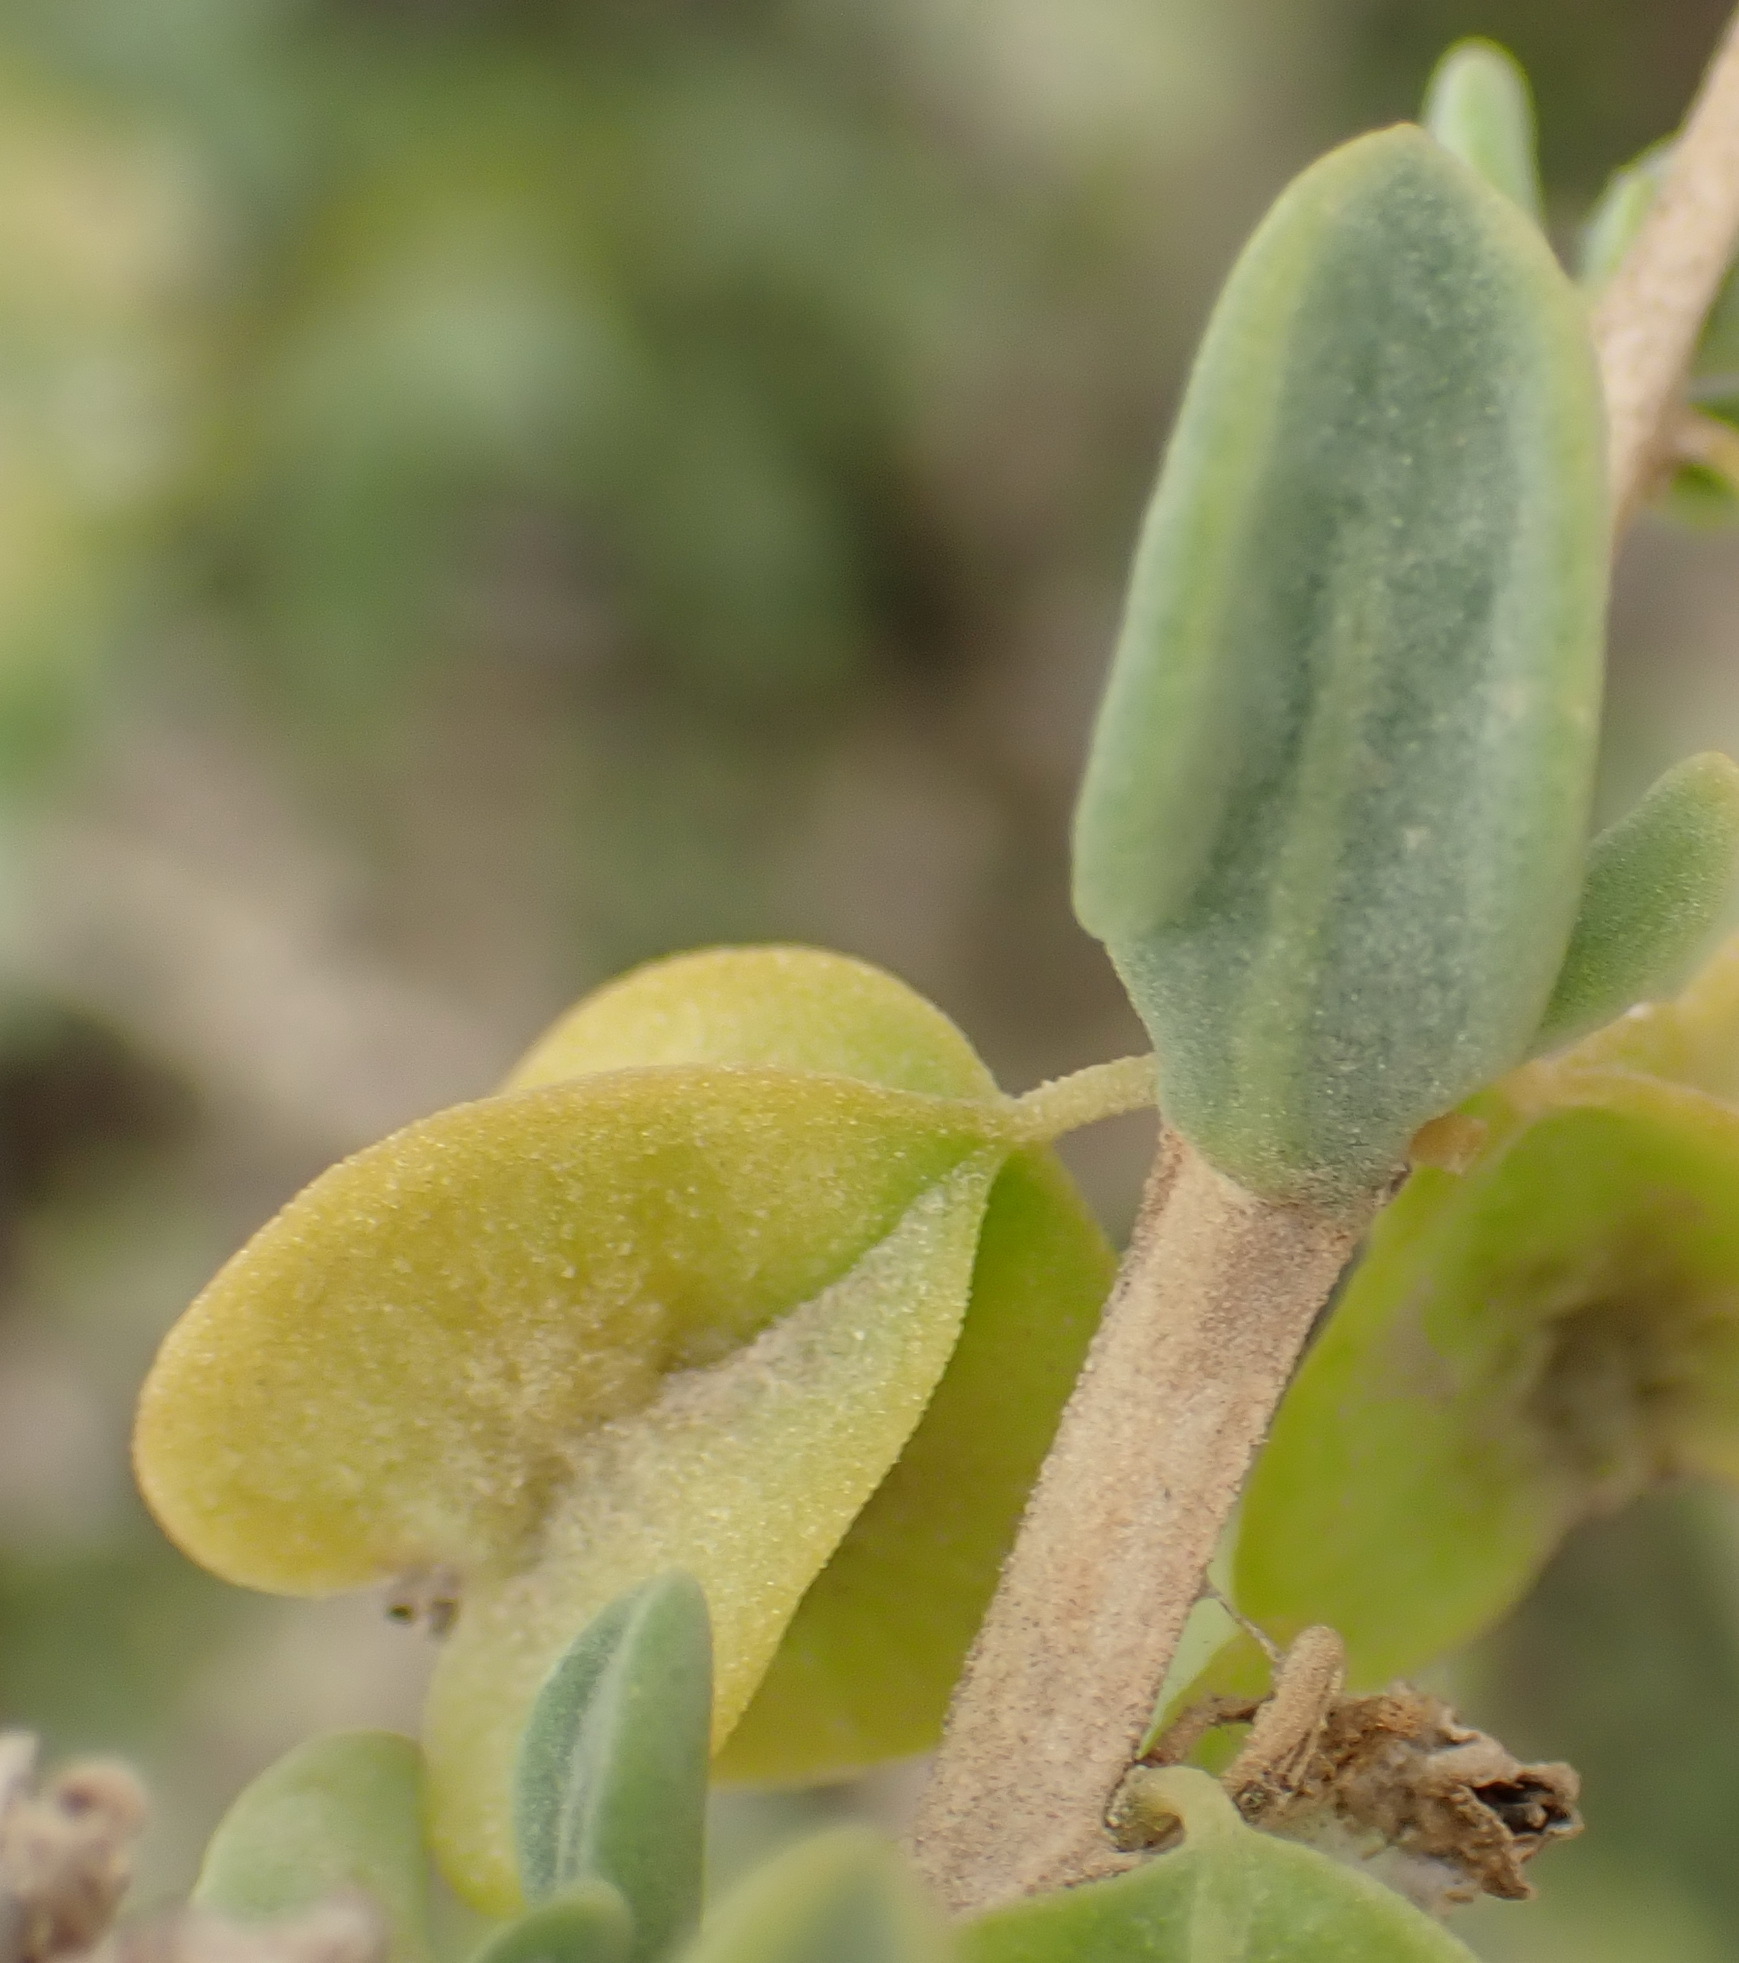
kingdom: Plantae
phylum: Tracheophyta
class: Magnoliopsida
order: Caryophyllales
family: Aizoaceae
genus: Tetragonia
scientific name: Tetragonia sarcophylla
